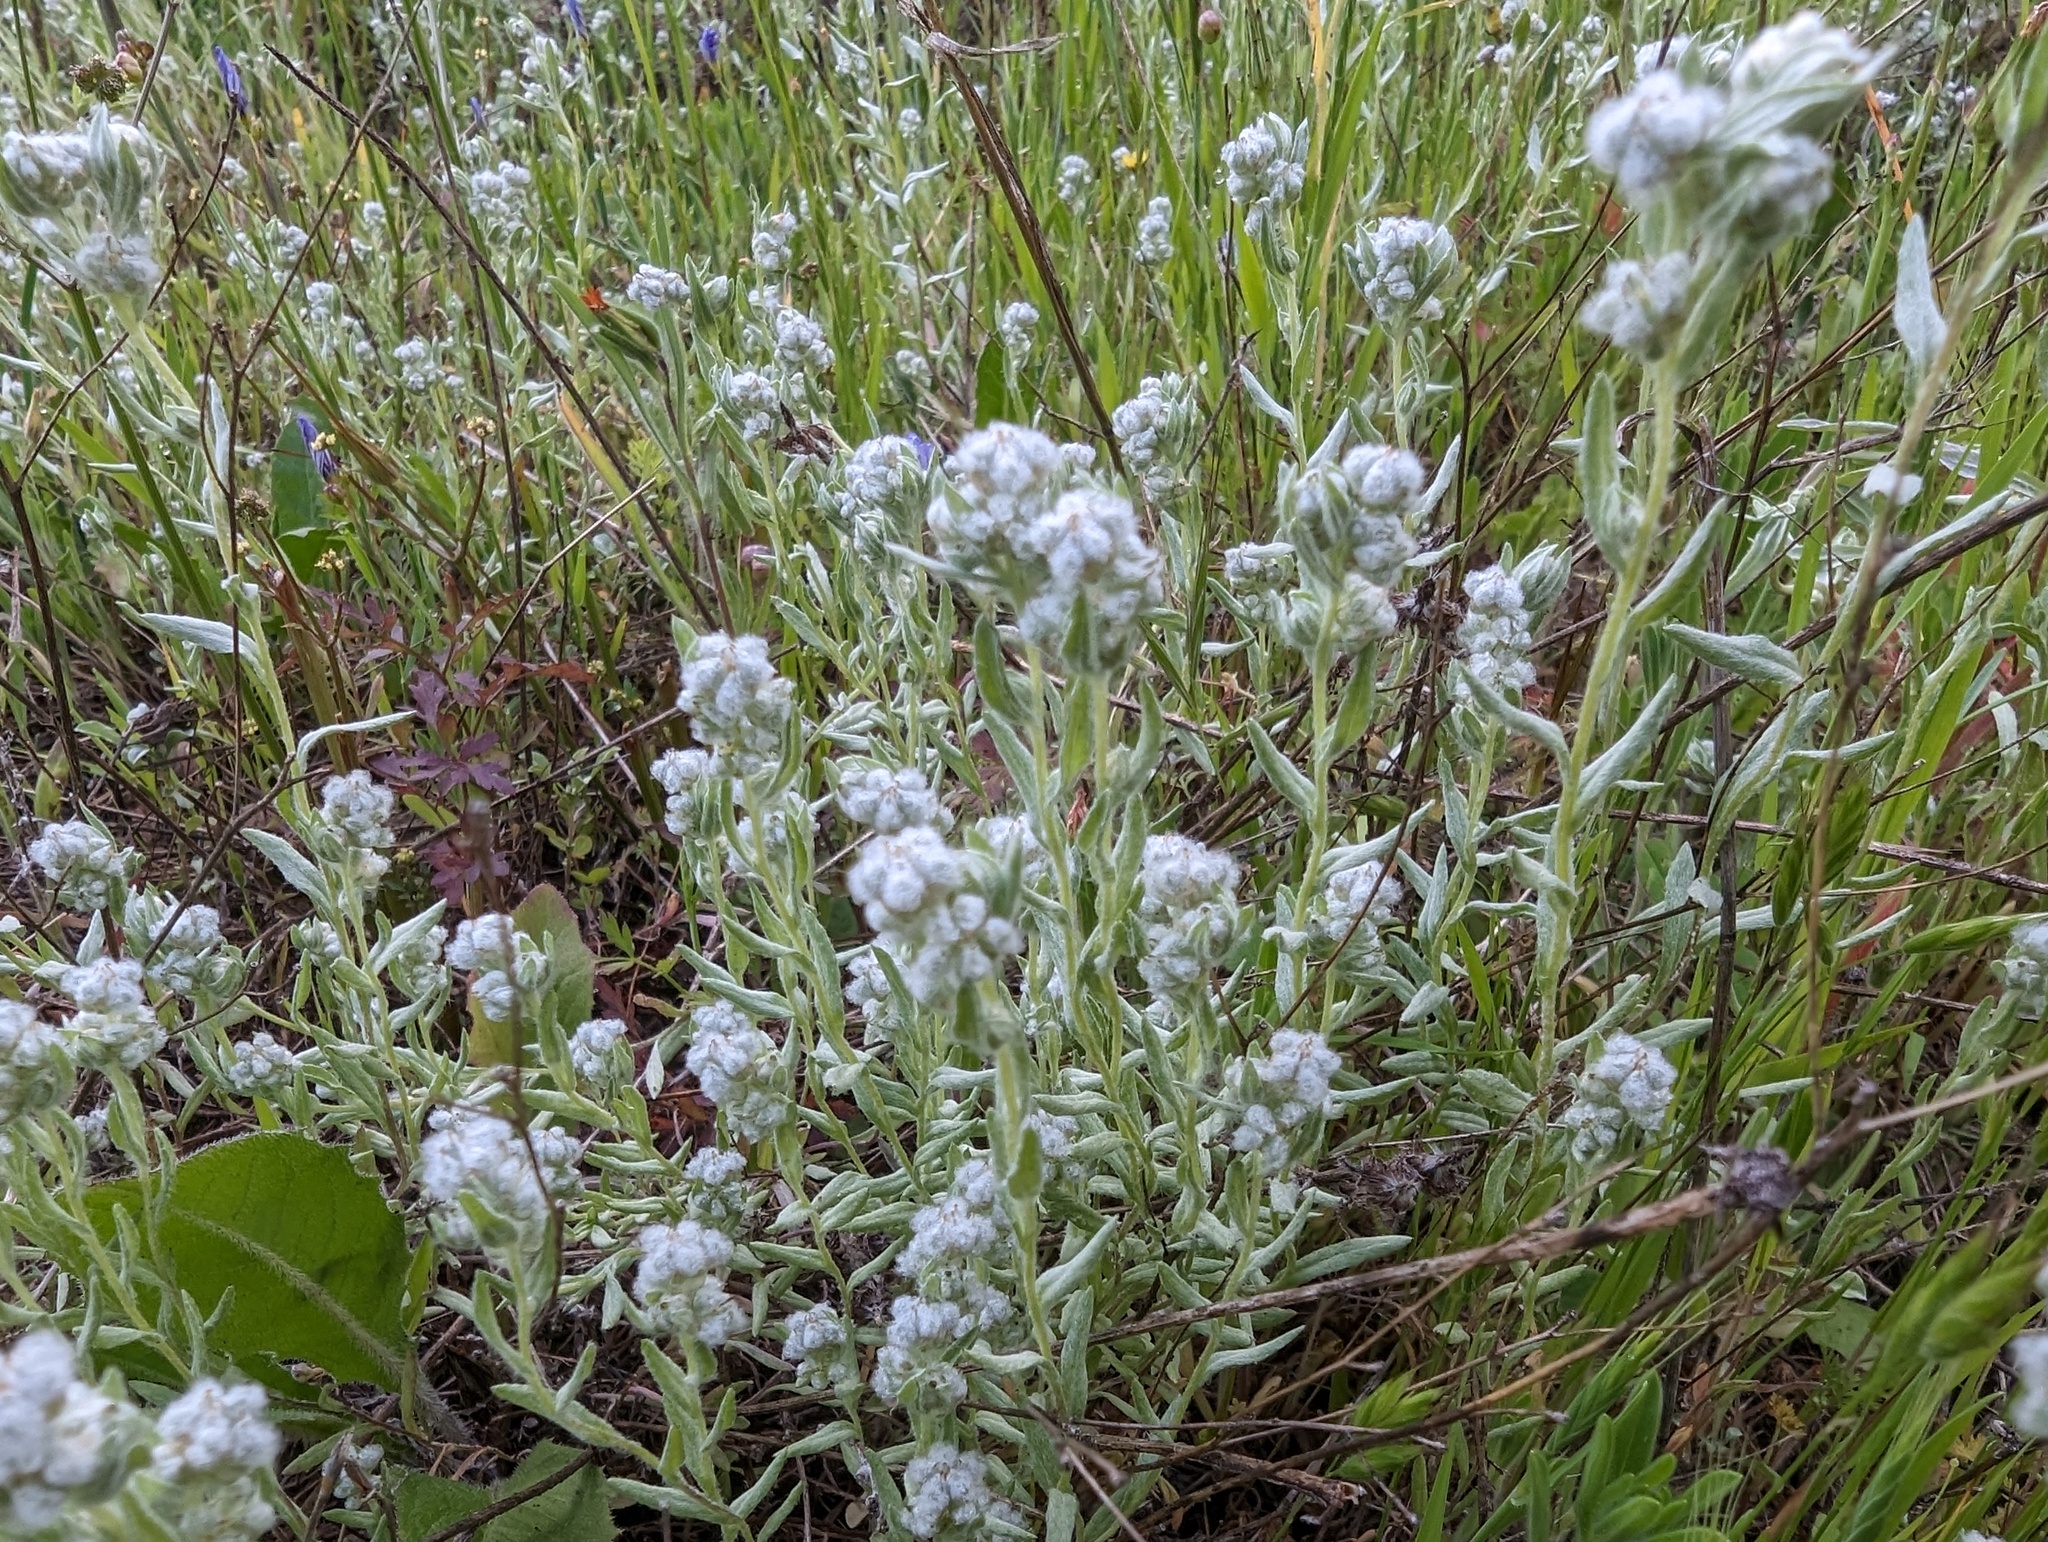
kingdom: Plantae
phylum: Tracheophyta
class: Magnoliopsida
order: Asterales
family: Asteraceae
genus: Bombycilaena
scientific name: Bombycilaena californica
